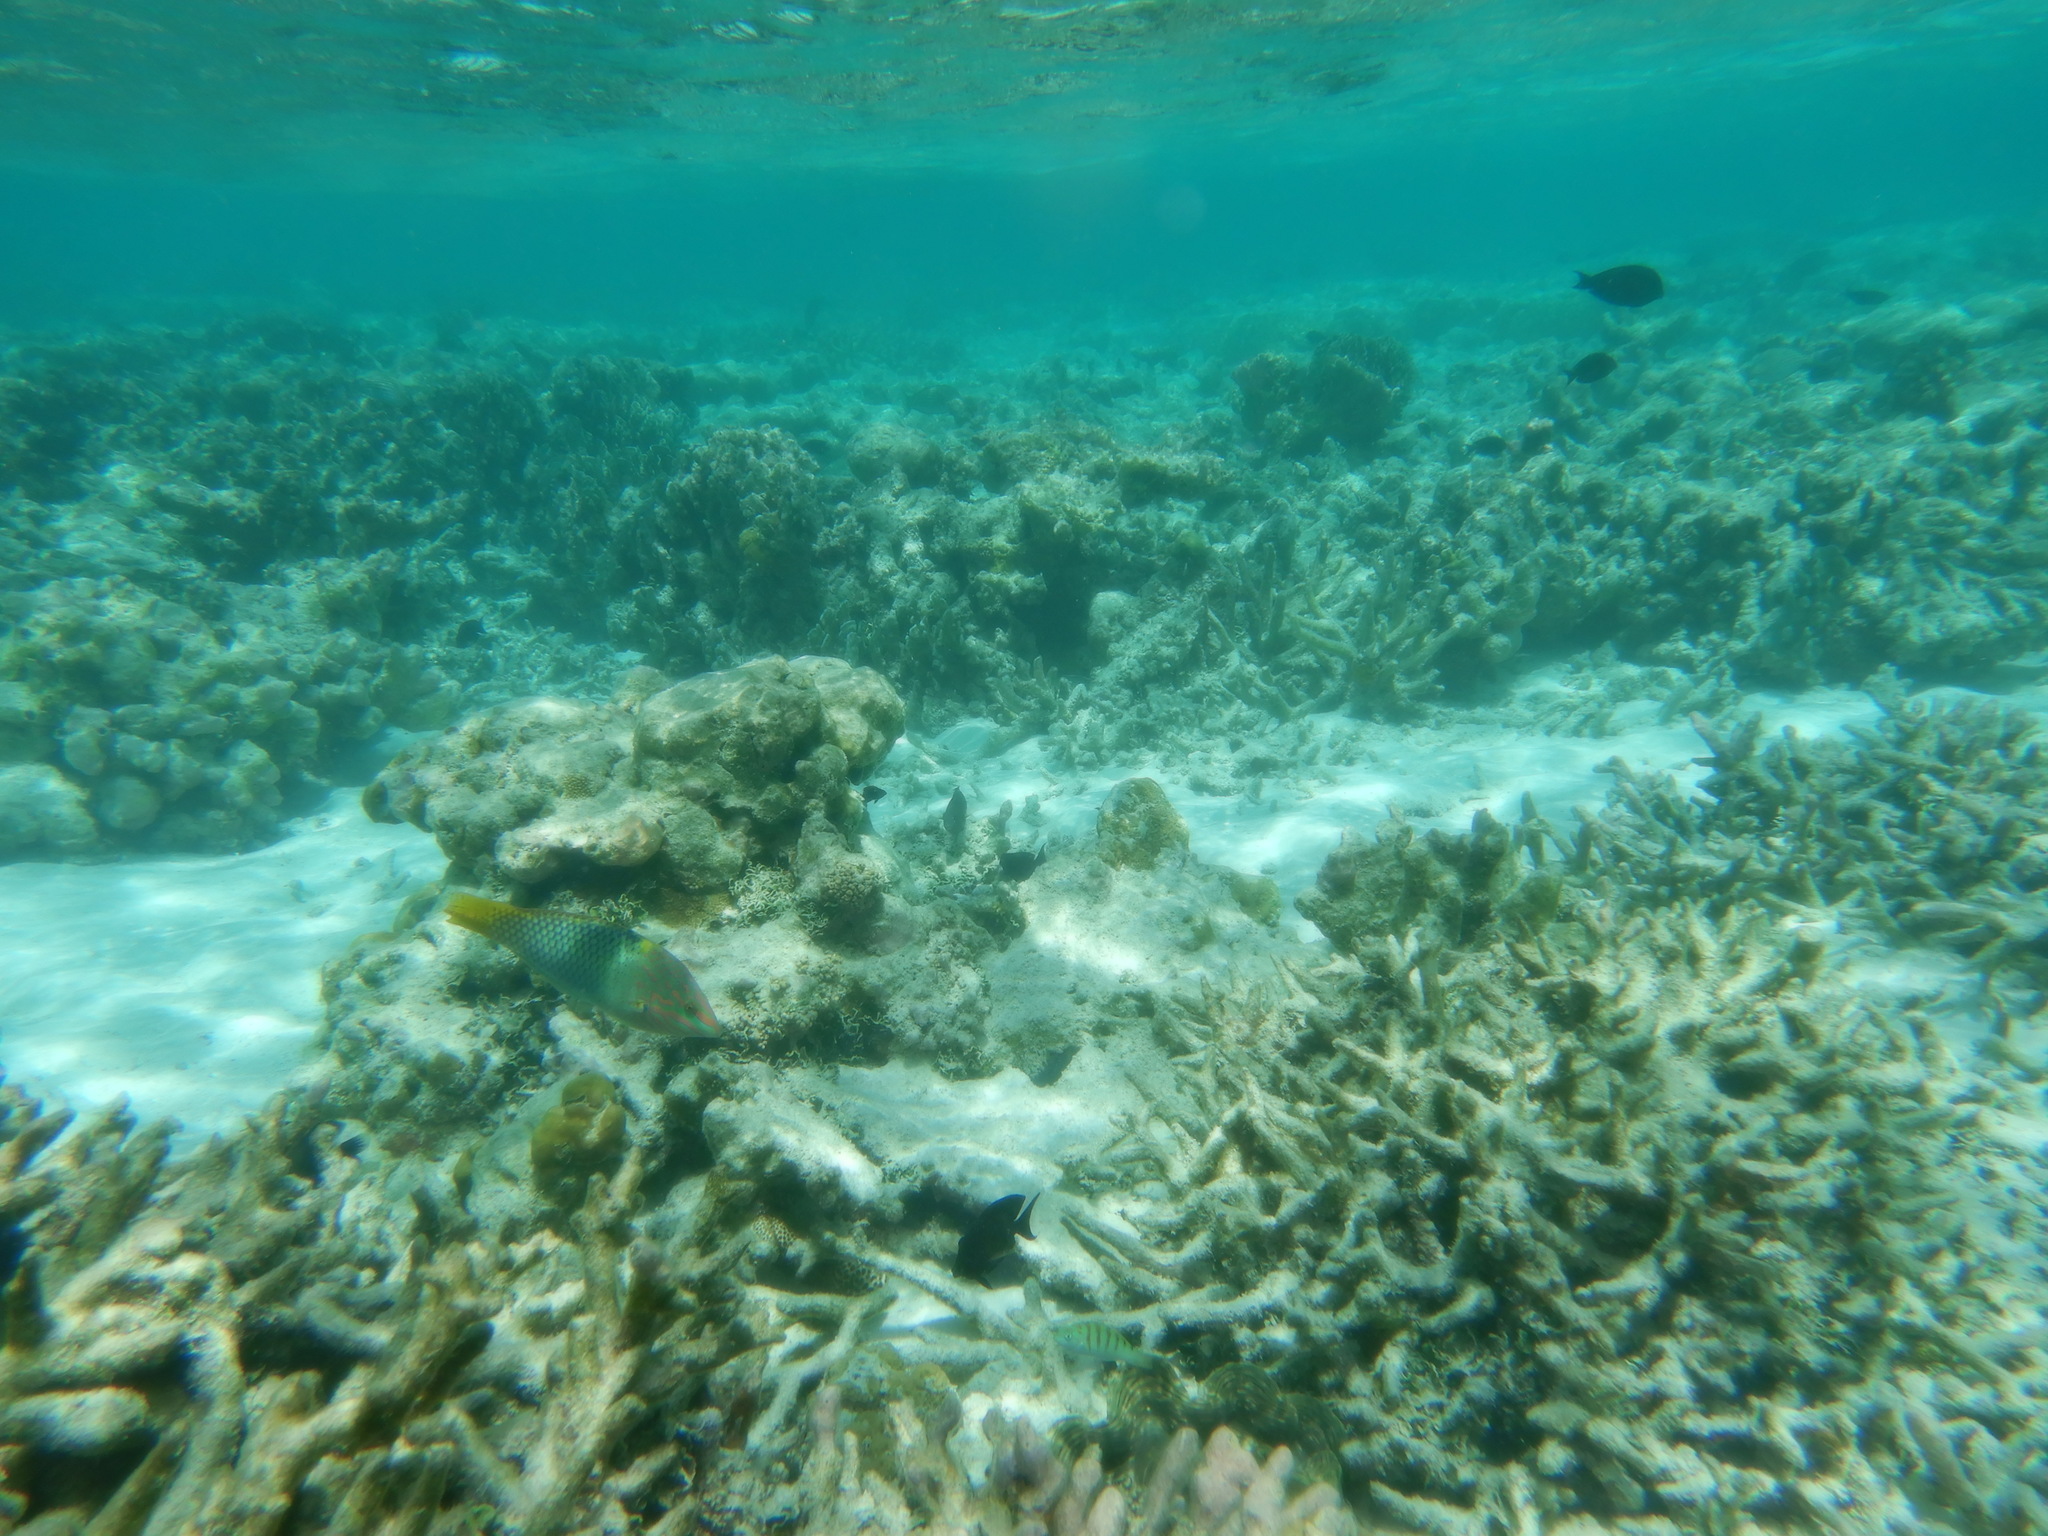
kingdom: Animalia
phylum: Chordata
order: Perciformes
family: Labridae
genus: Halichoeres
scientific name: Halichoeres hortulanus
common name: Checkerboard wrasse
